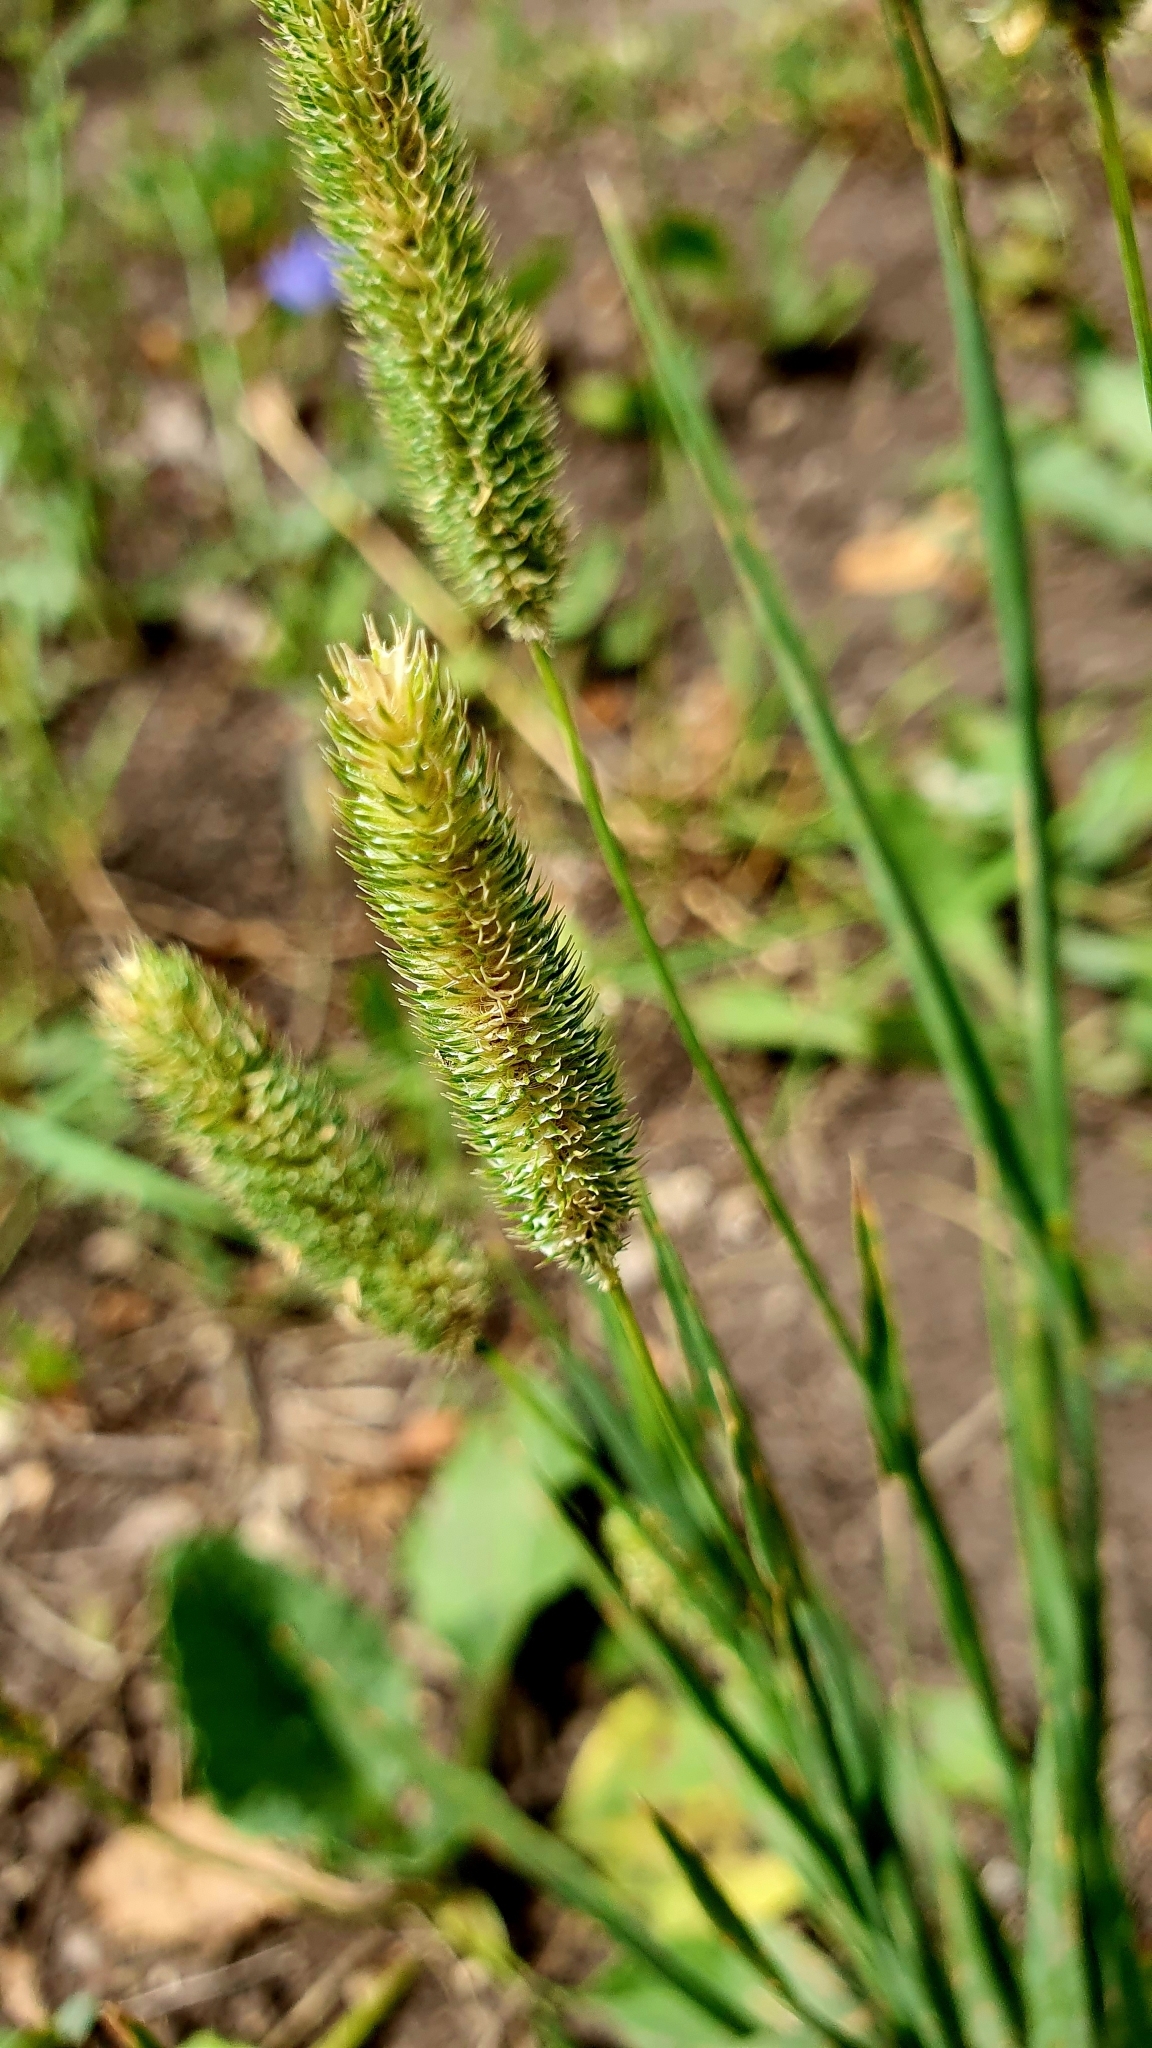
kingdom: Plantae
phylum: Tracheophyta
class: Liliopsida
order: Poales
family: Poaceae
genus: Phleum
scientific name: Phleum pratense
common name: Timothy grass
